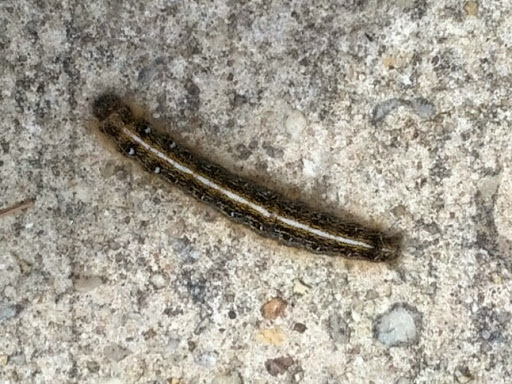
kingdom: Animalia
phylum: Arthropoda
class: Insecta
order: Lepidoptera
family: Lasiocampidae
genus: Malacosoma
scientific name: Malacosoma americana
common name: Eastern tent caterpillar moth
